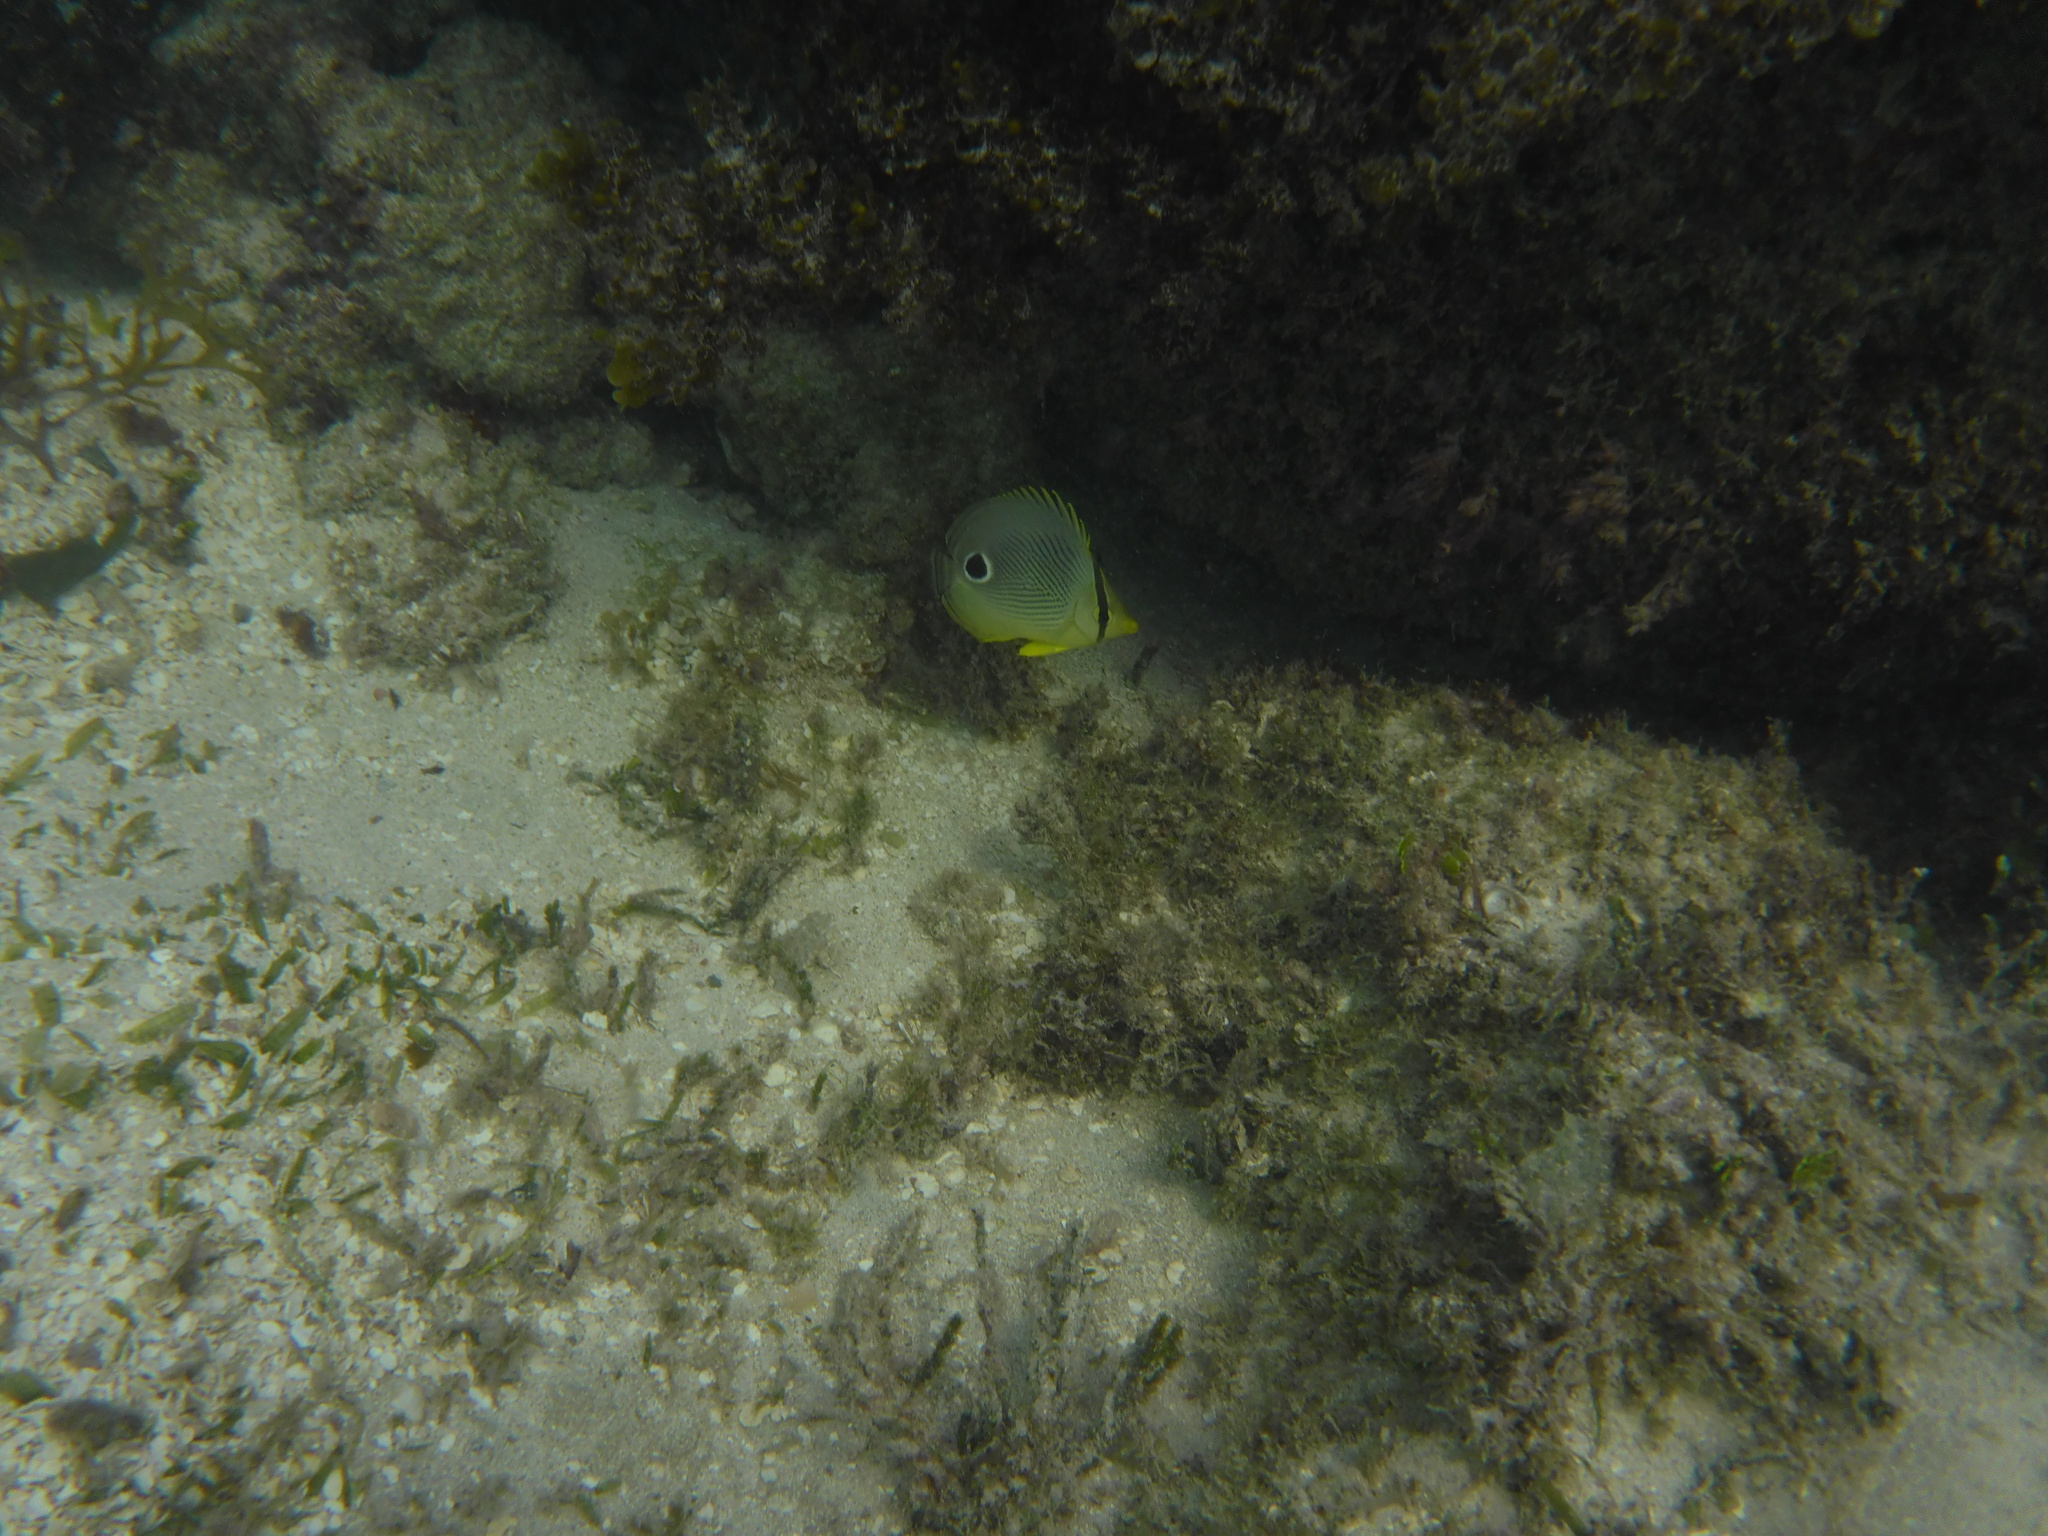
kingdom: Animalia
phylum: Chordata
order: Perciformes
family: Chaetodontidae
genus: Chaetodon
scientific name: Chaetodon capistratus
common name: Kete
